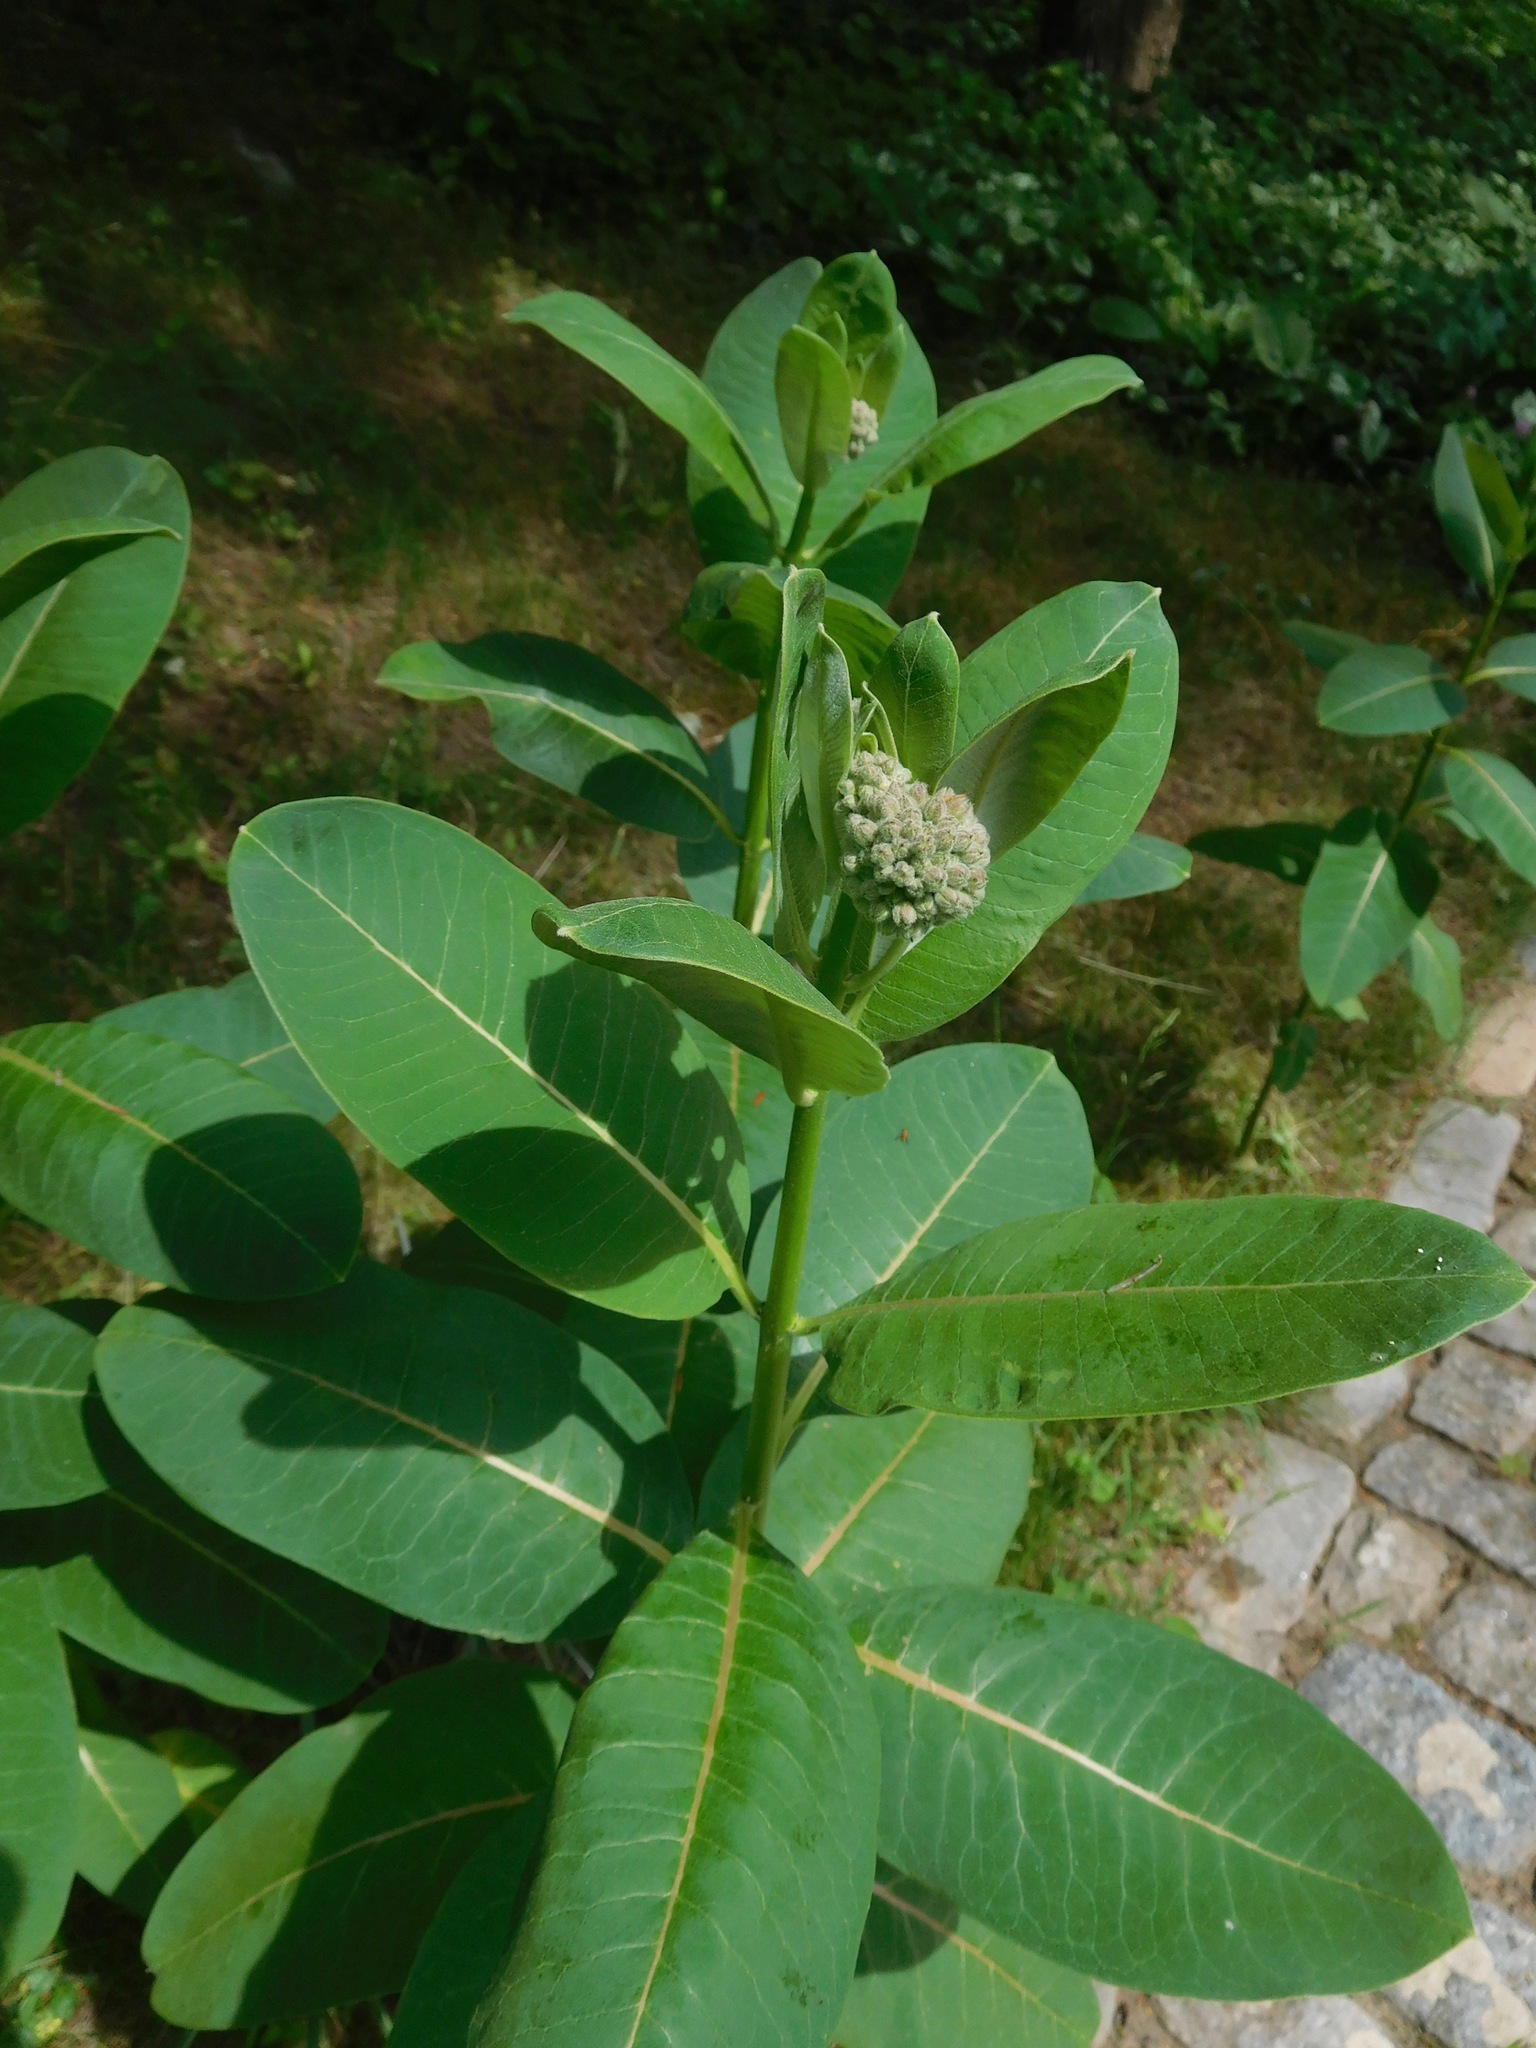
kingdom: Plantae
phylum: Tracheophyta
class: Magnoliopsida
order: Gentianales
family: Apocynaceae
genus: Asclepias
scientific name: Asclepias syriaca
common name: Common milkweed
